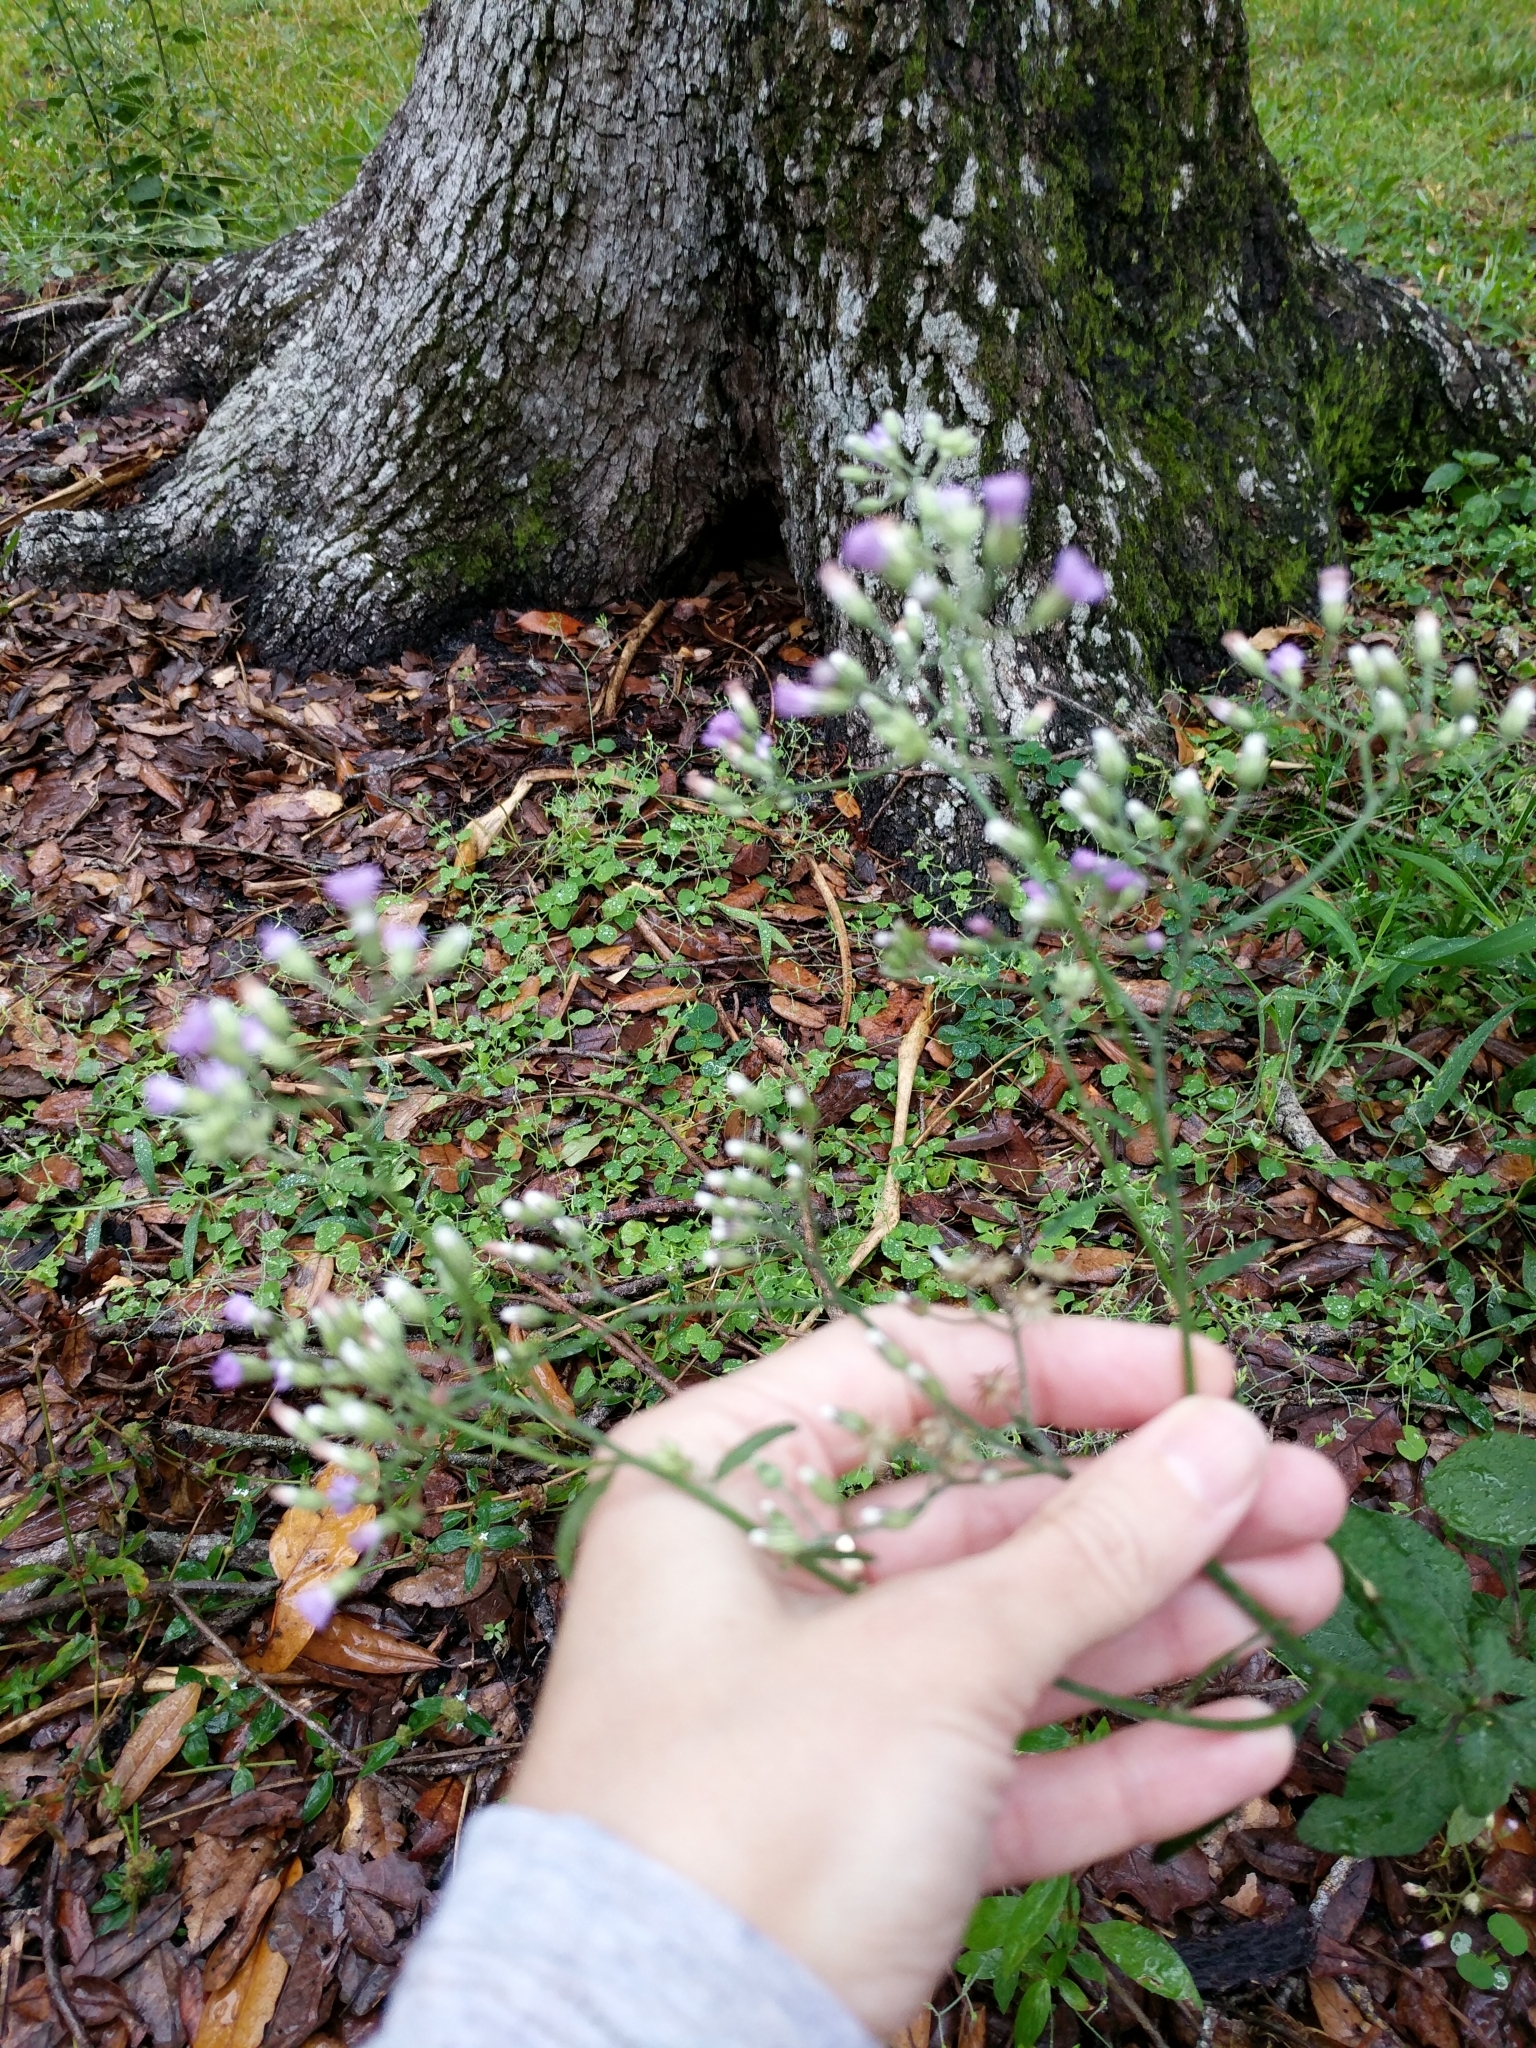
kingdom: Plantae
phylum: Tracheophyta
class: Magnoliopsida
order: Asterales
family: Asteraceae
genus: Cyanthillium
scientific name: Cyanthillium cinereum
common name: Little ironweed
